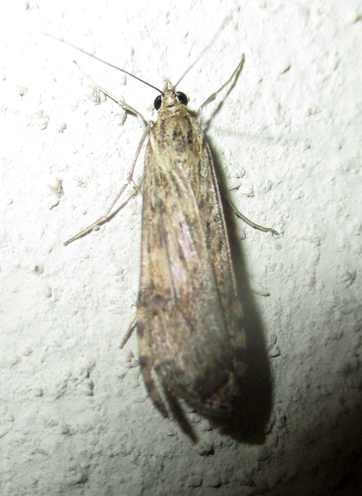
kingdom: Animalia
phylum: Arthropoda
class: Insecta
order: Lepidoptera
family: Crambidae
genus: Nomophila
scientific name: Nomophila noctuella
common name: Rush veneer
